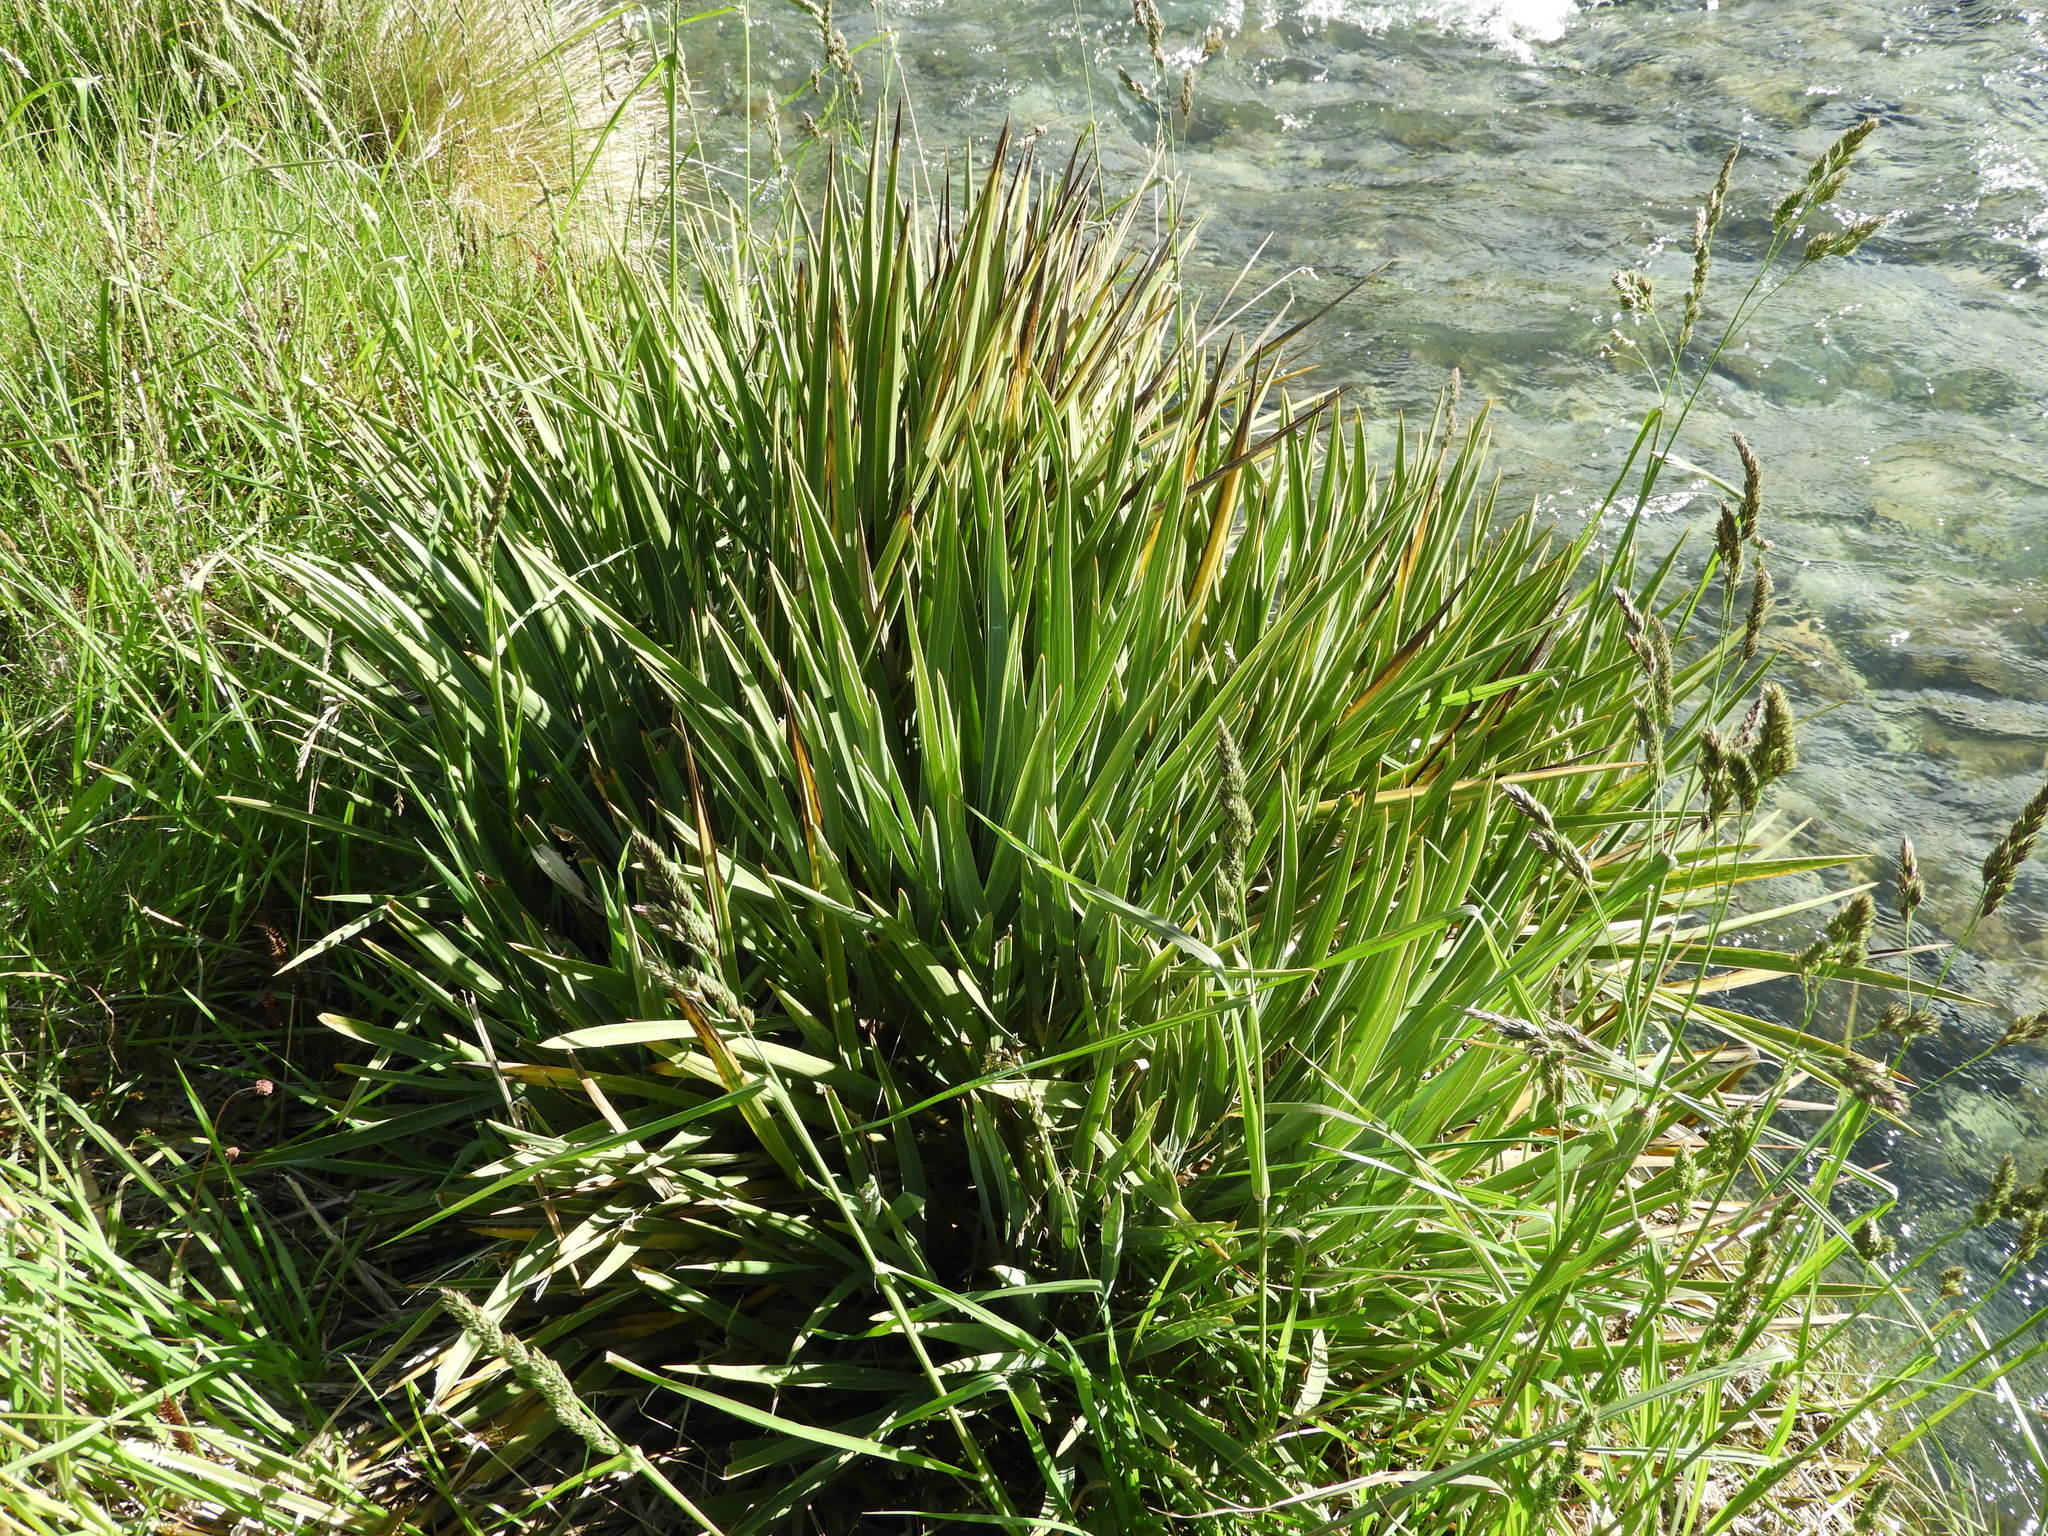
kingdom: Plantae
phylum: Tracheophyta
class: Liliopsida
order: Poales
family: Poaceae
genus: Dactylis
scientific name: Dactylis glomerata
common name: Orchardgrass
